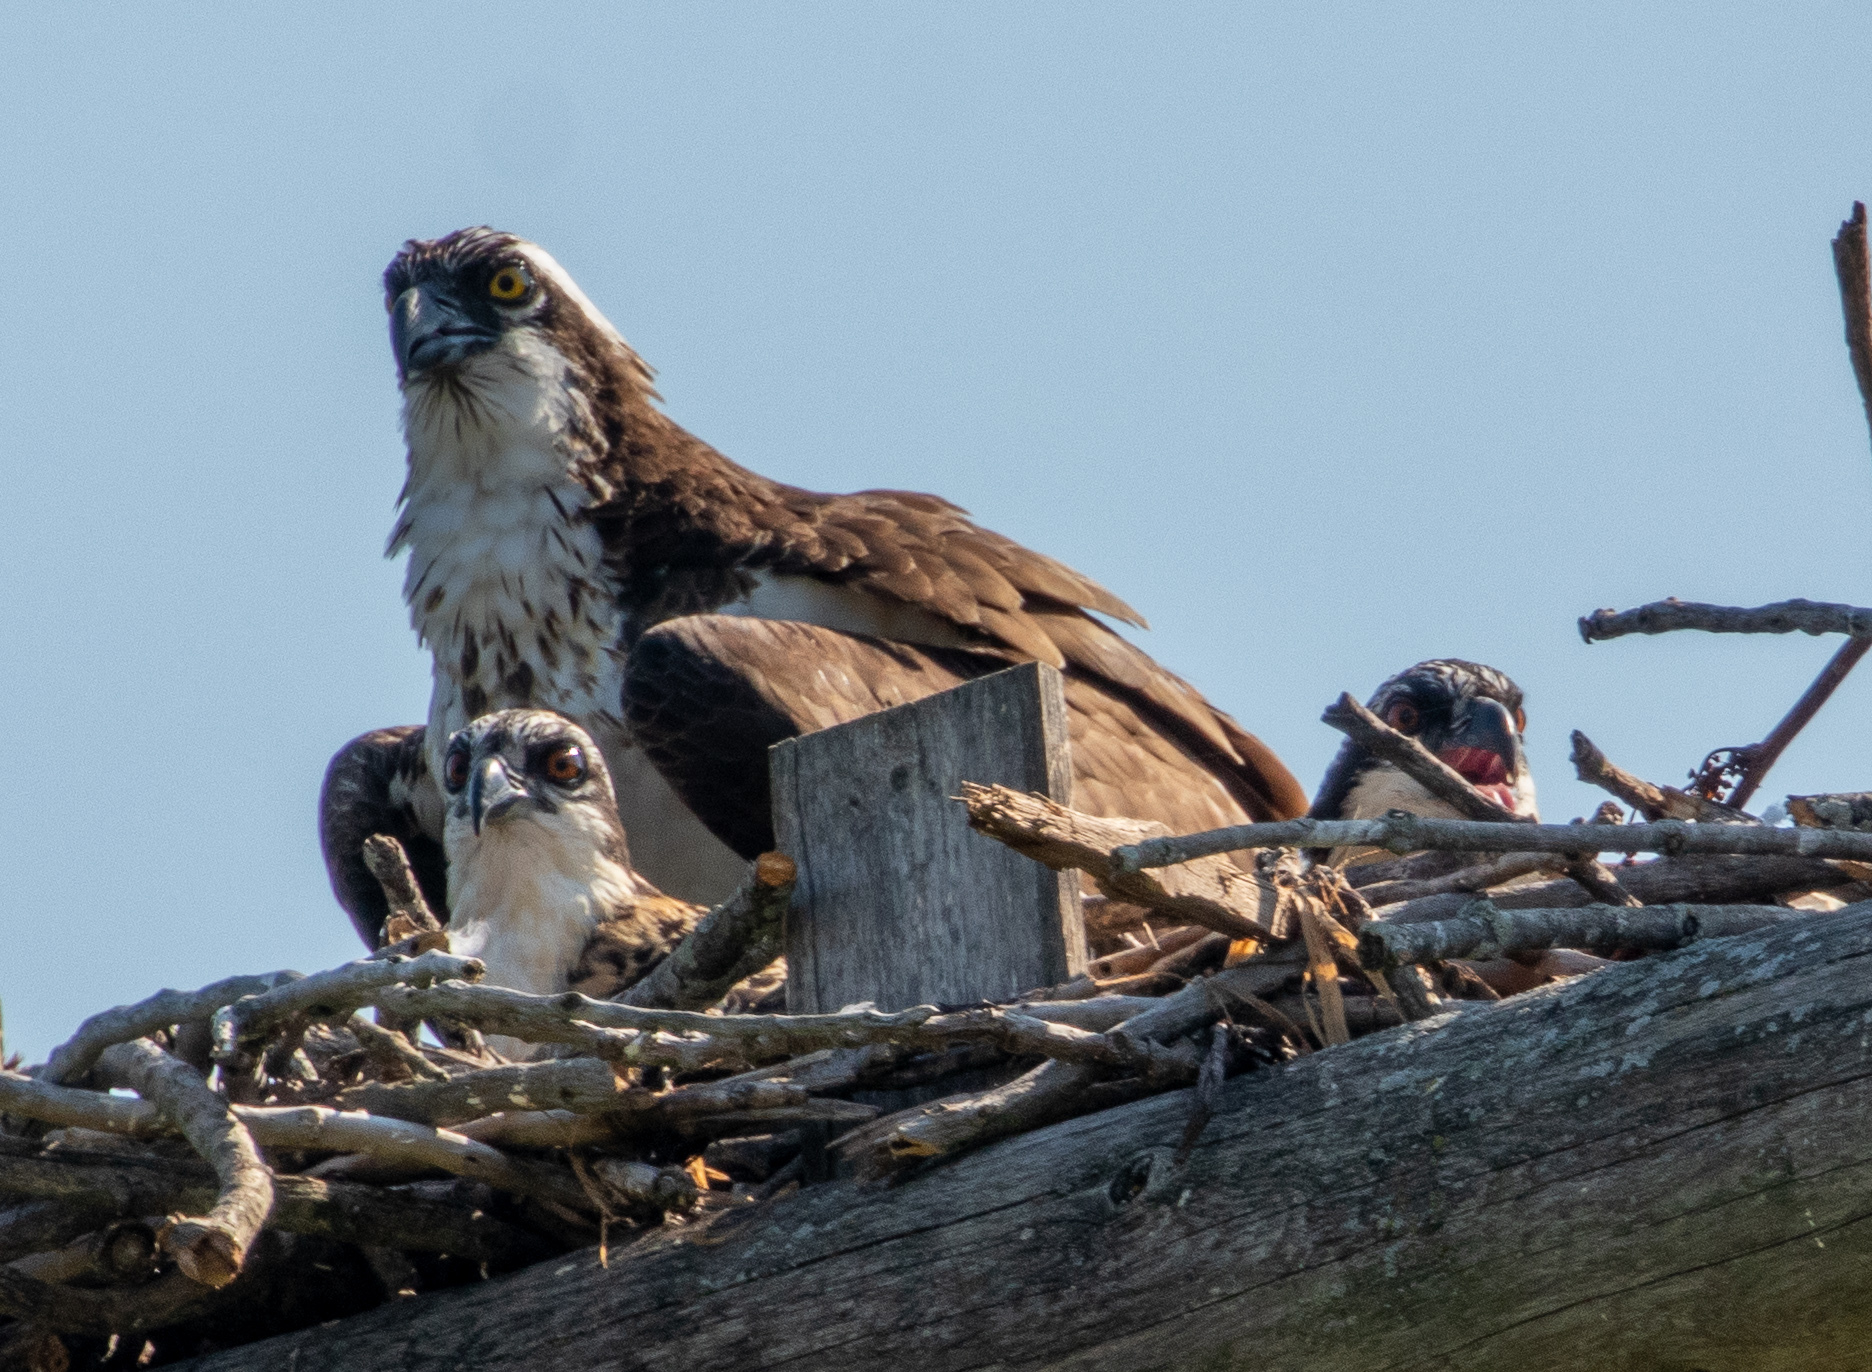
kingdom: Animalia
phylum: Chordata
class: Aves
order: Accipitriformes
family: Pandionidae
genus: Pandion
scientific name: Pandion haliaetus
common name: Osprey
